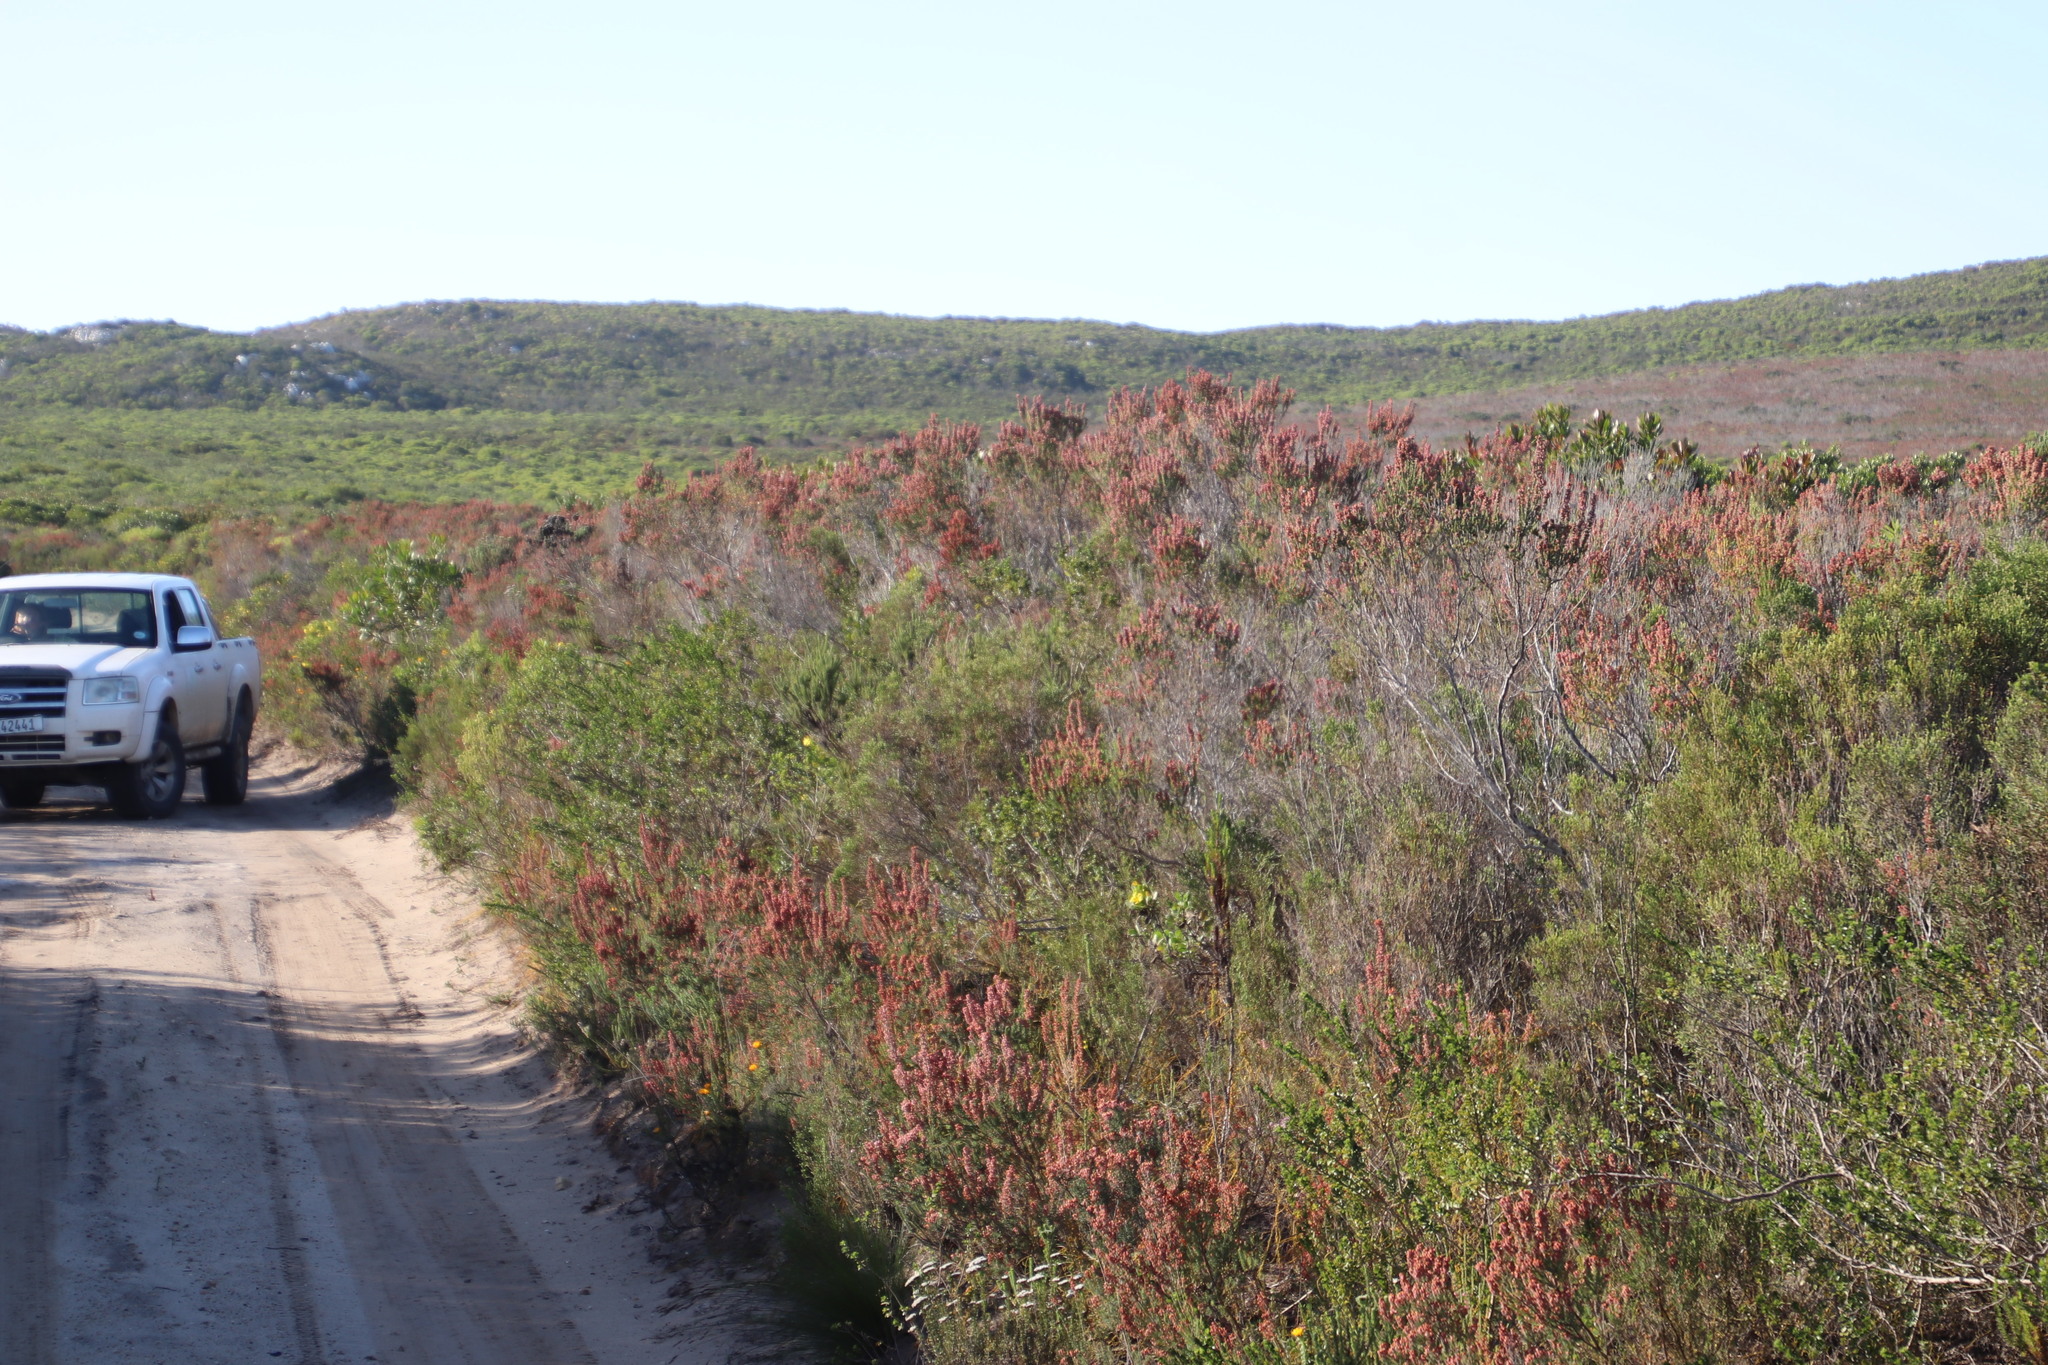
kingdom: Plantae
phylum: Tracheophyta
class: Magnoliopsida
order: Ericales
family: Ericaceae
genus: Erica
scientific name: Erica irregularis
